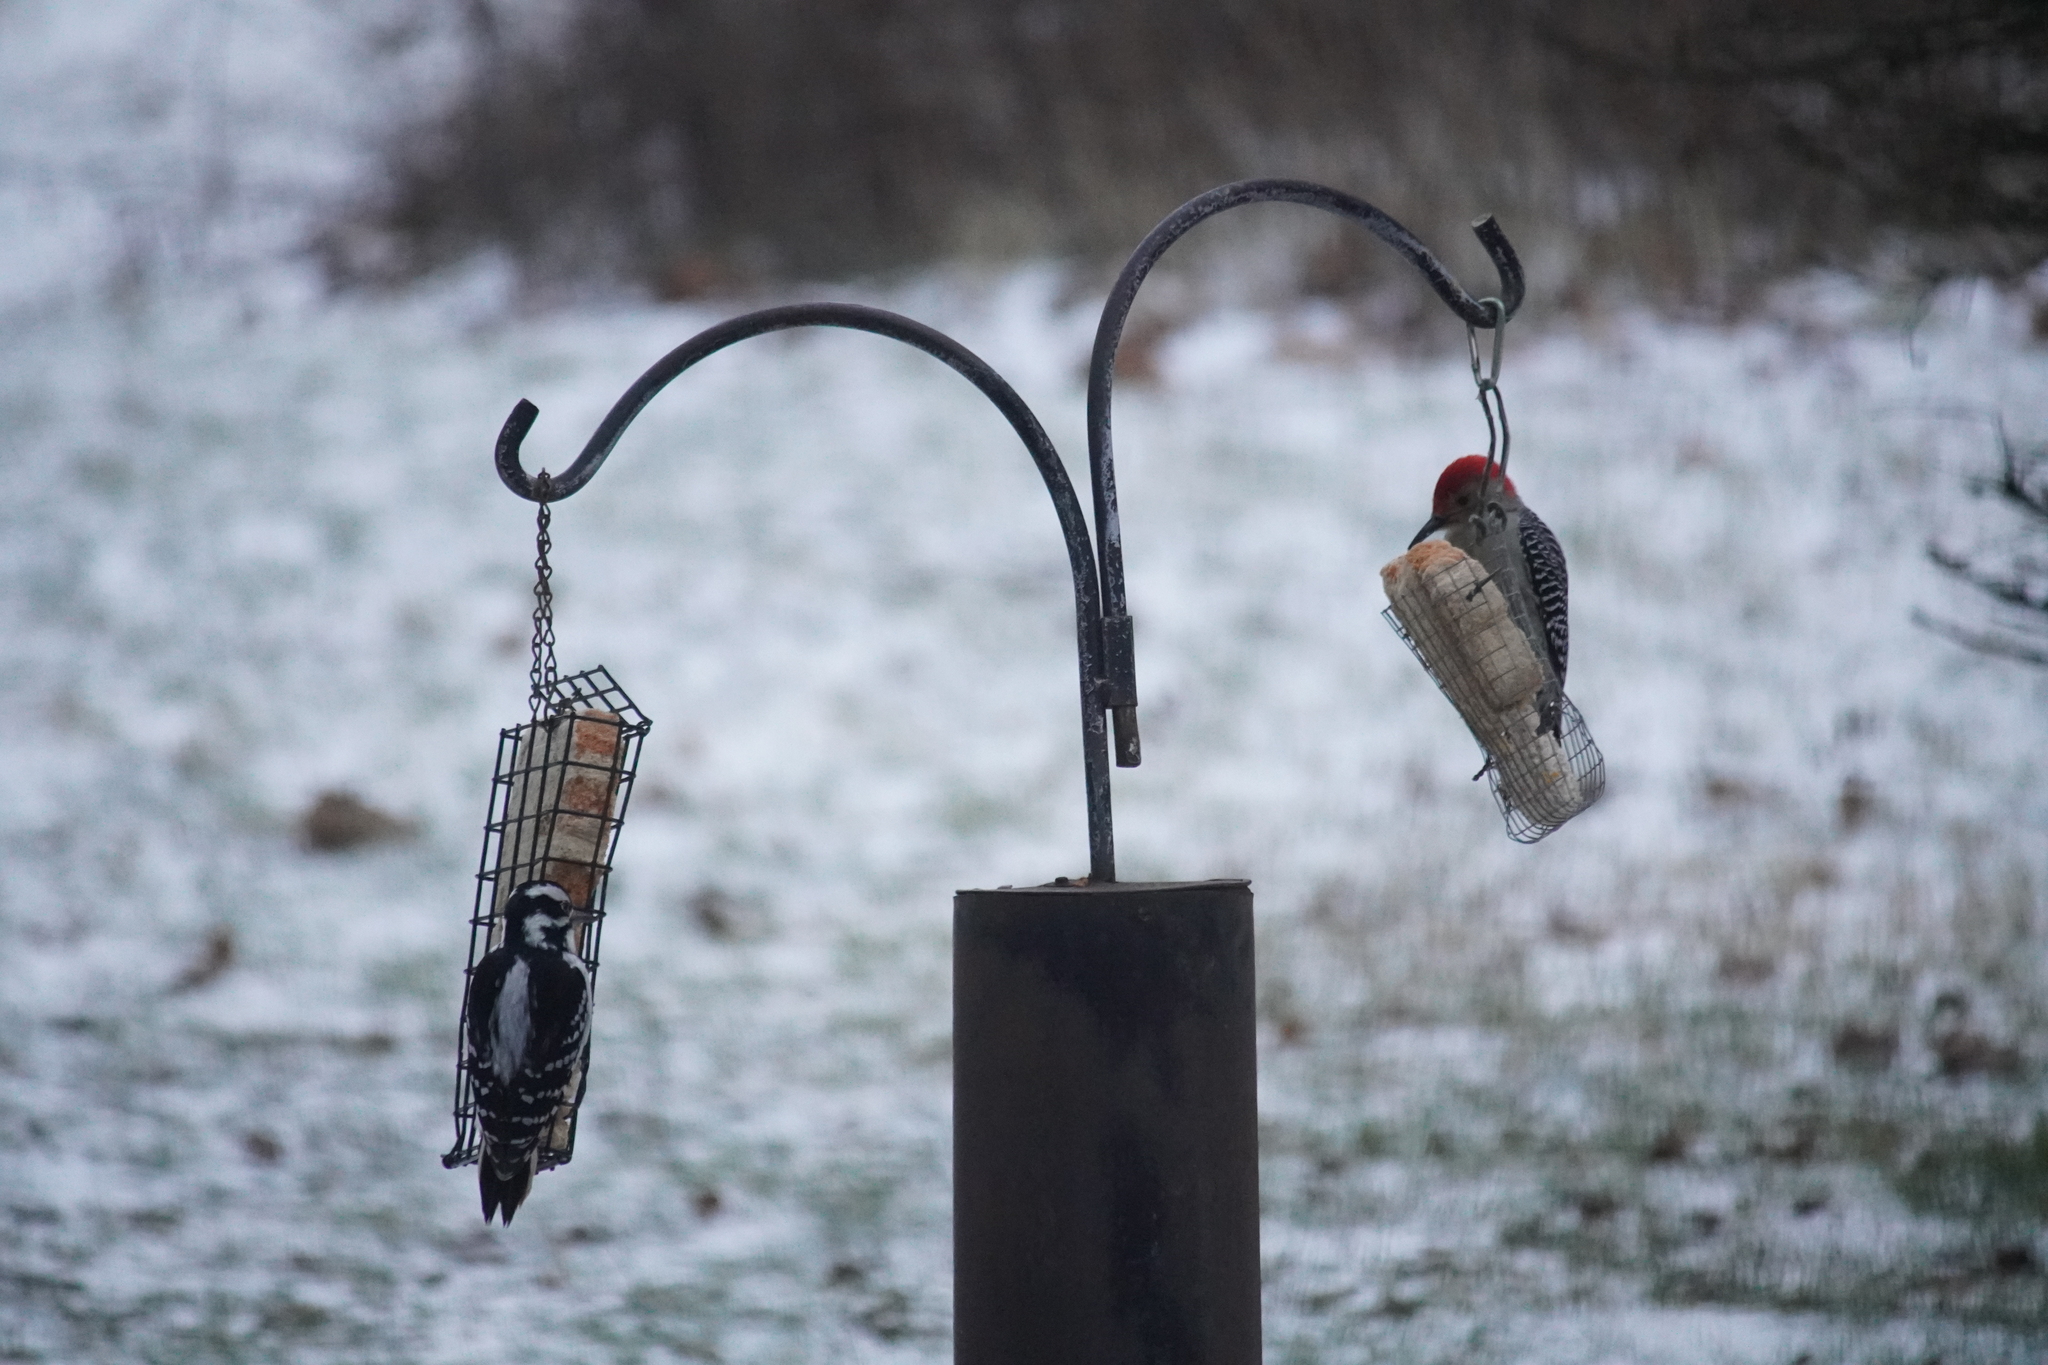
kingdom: Animalia
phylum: Chordata
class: Aves
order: Piciformes
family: Picidae
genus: Leuconotopicus
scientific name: Leuconotopicus villosus
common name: Hairy woodpecker
